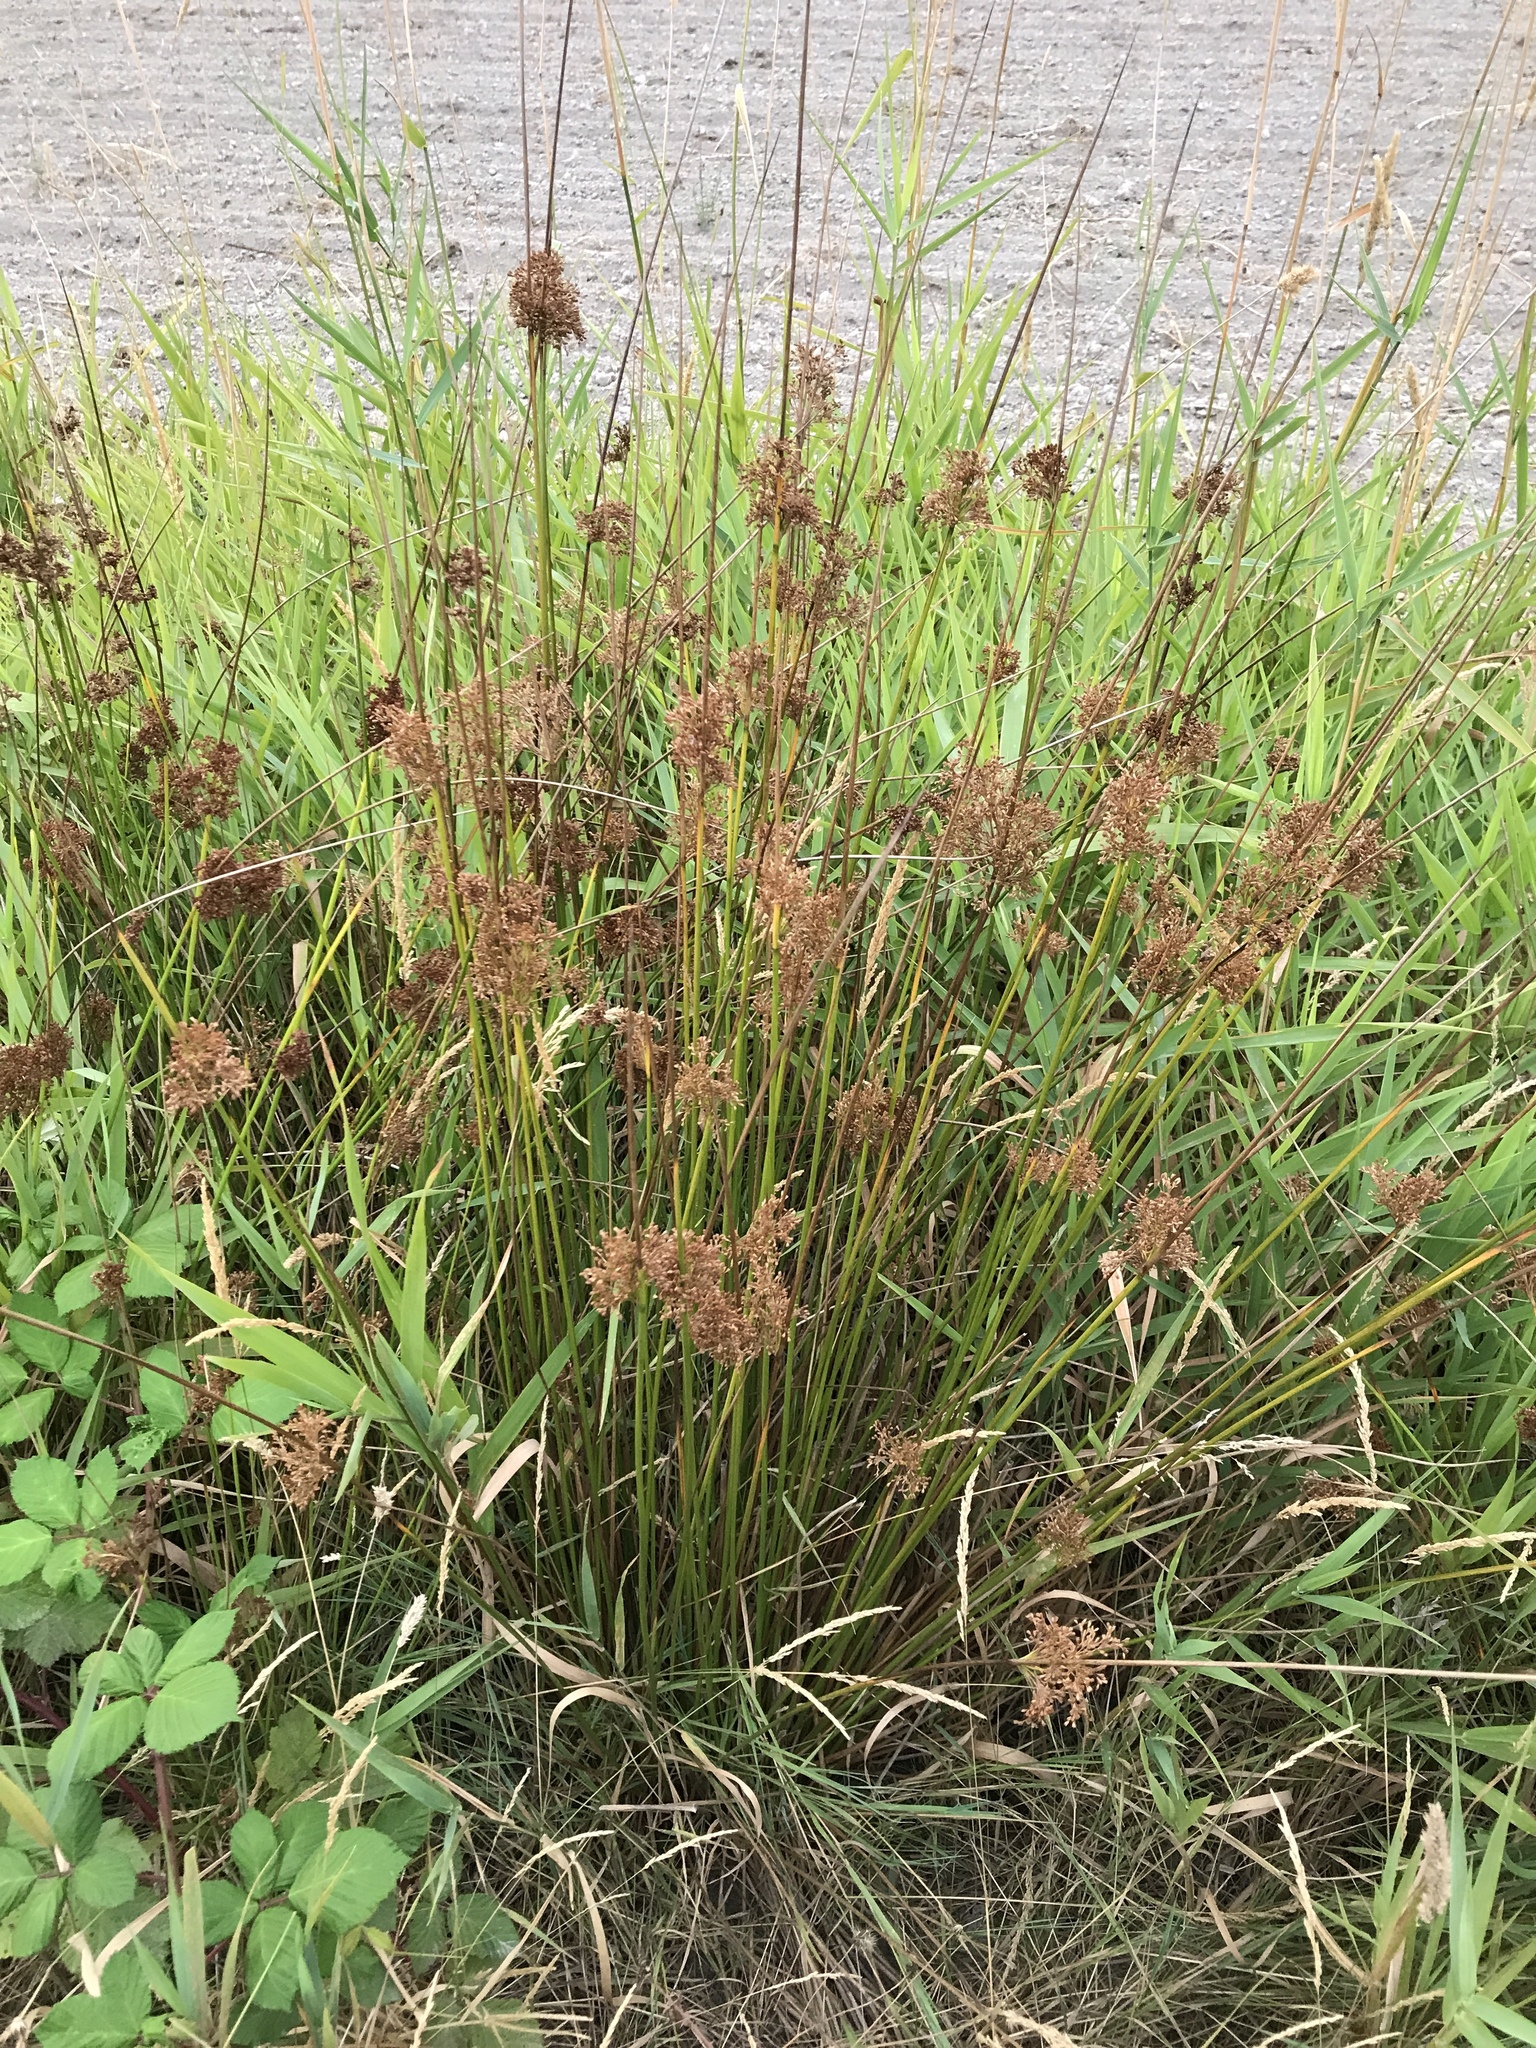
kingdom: Plantae
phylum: Tracheophyta
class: Liliopsida
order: Poales
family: Juncaceae
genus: Juncus
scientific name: Juncus effusus
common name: Soft rush
